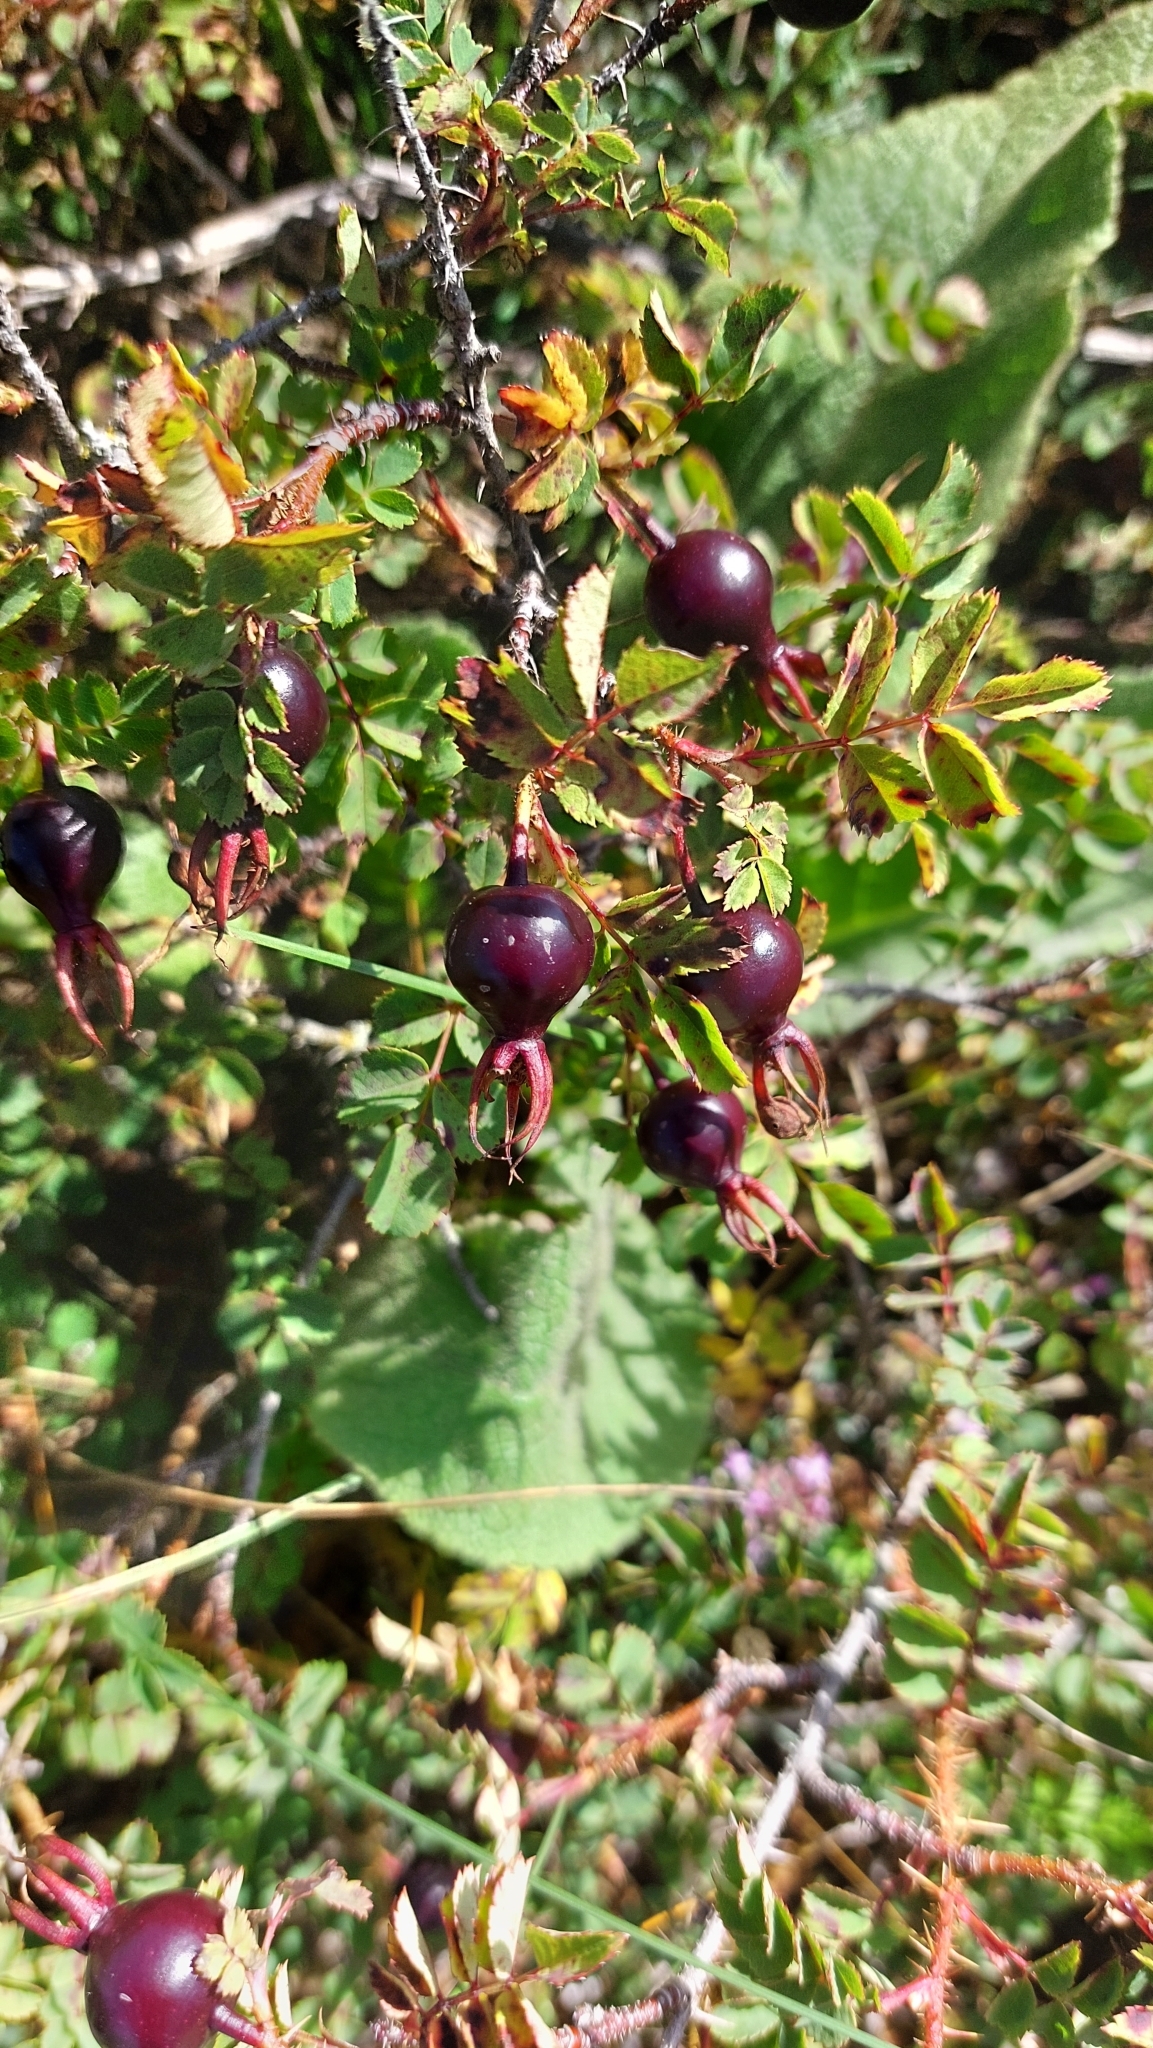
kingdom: Plantae
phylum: Tracheophyta
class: Magnoliopsida
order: Rosales
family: Rosaceae
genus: Rosa
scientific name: Rosa spinosissima
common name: Burnet rose
